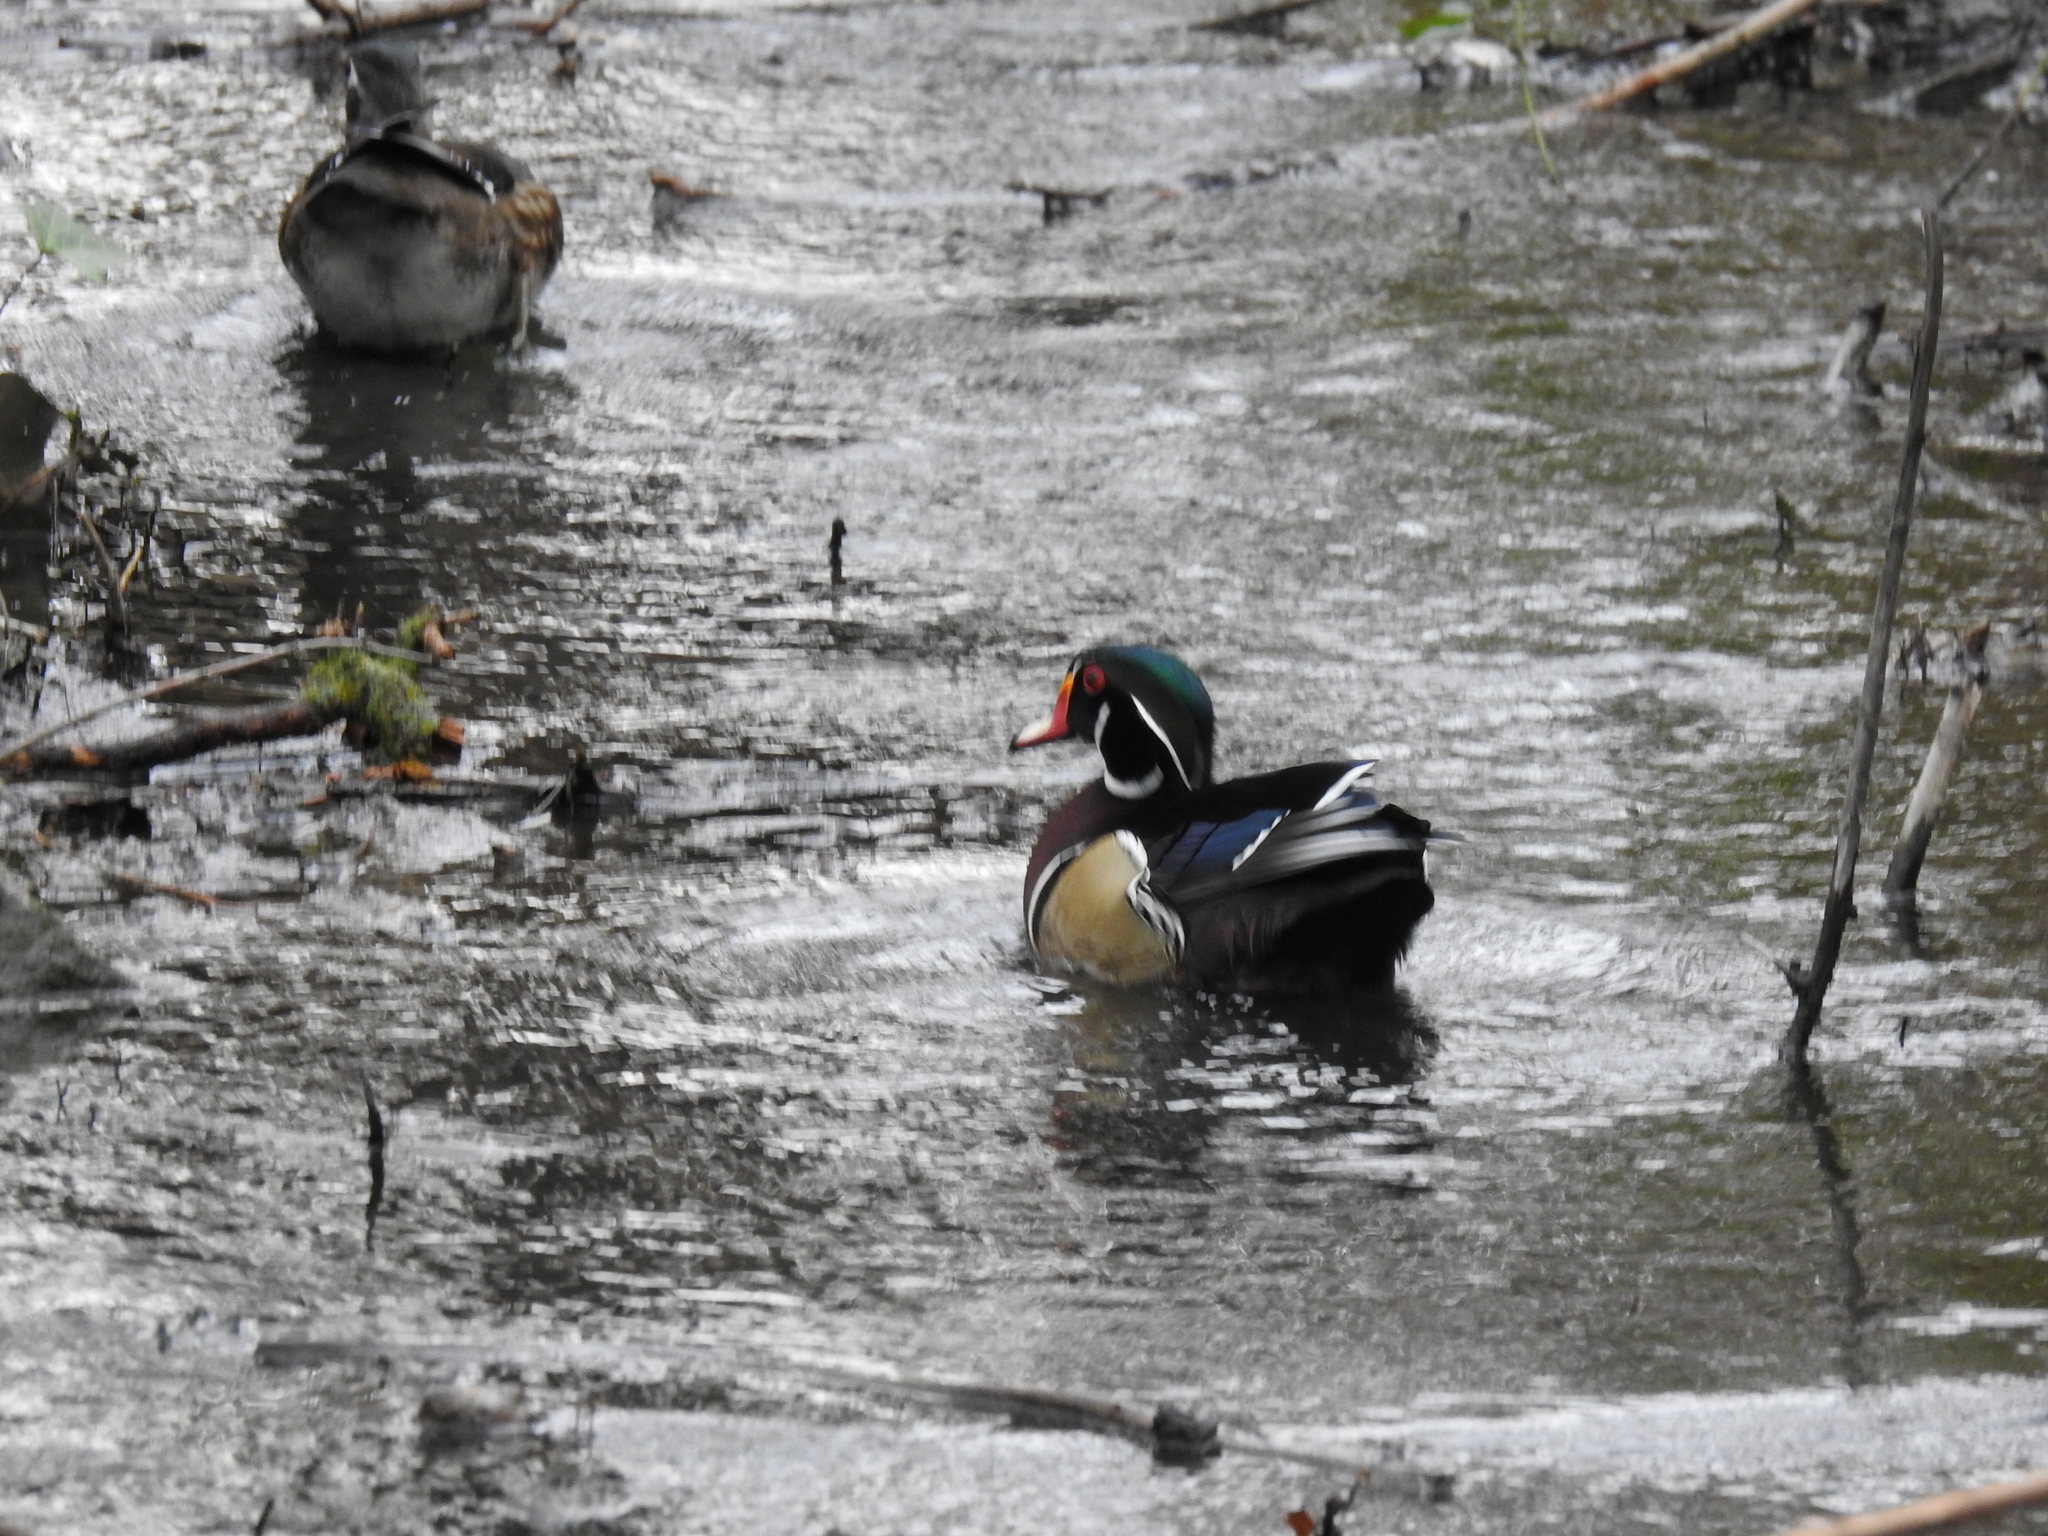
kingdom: Animalia
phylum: Chordata
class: Aves
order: Anseriformes
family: Anatidae
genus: Aix
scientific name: Aix sponsa
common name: Wood duck
